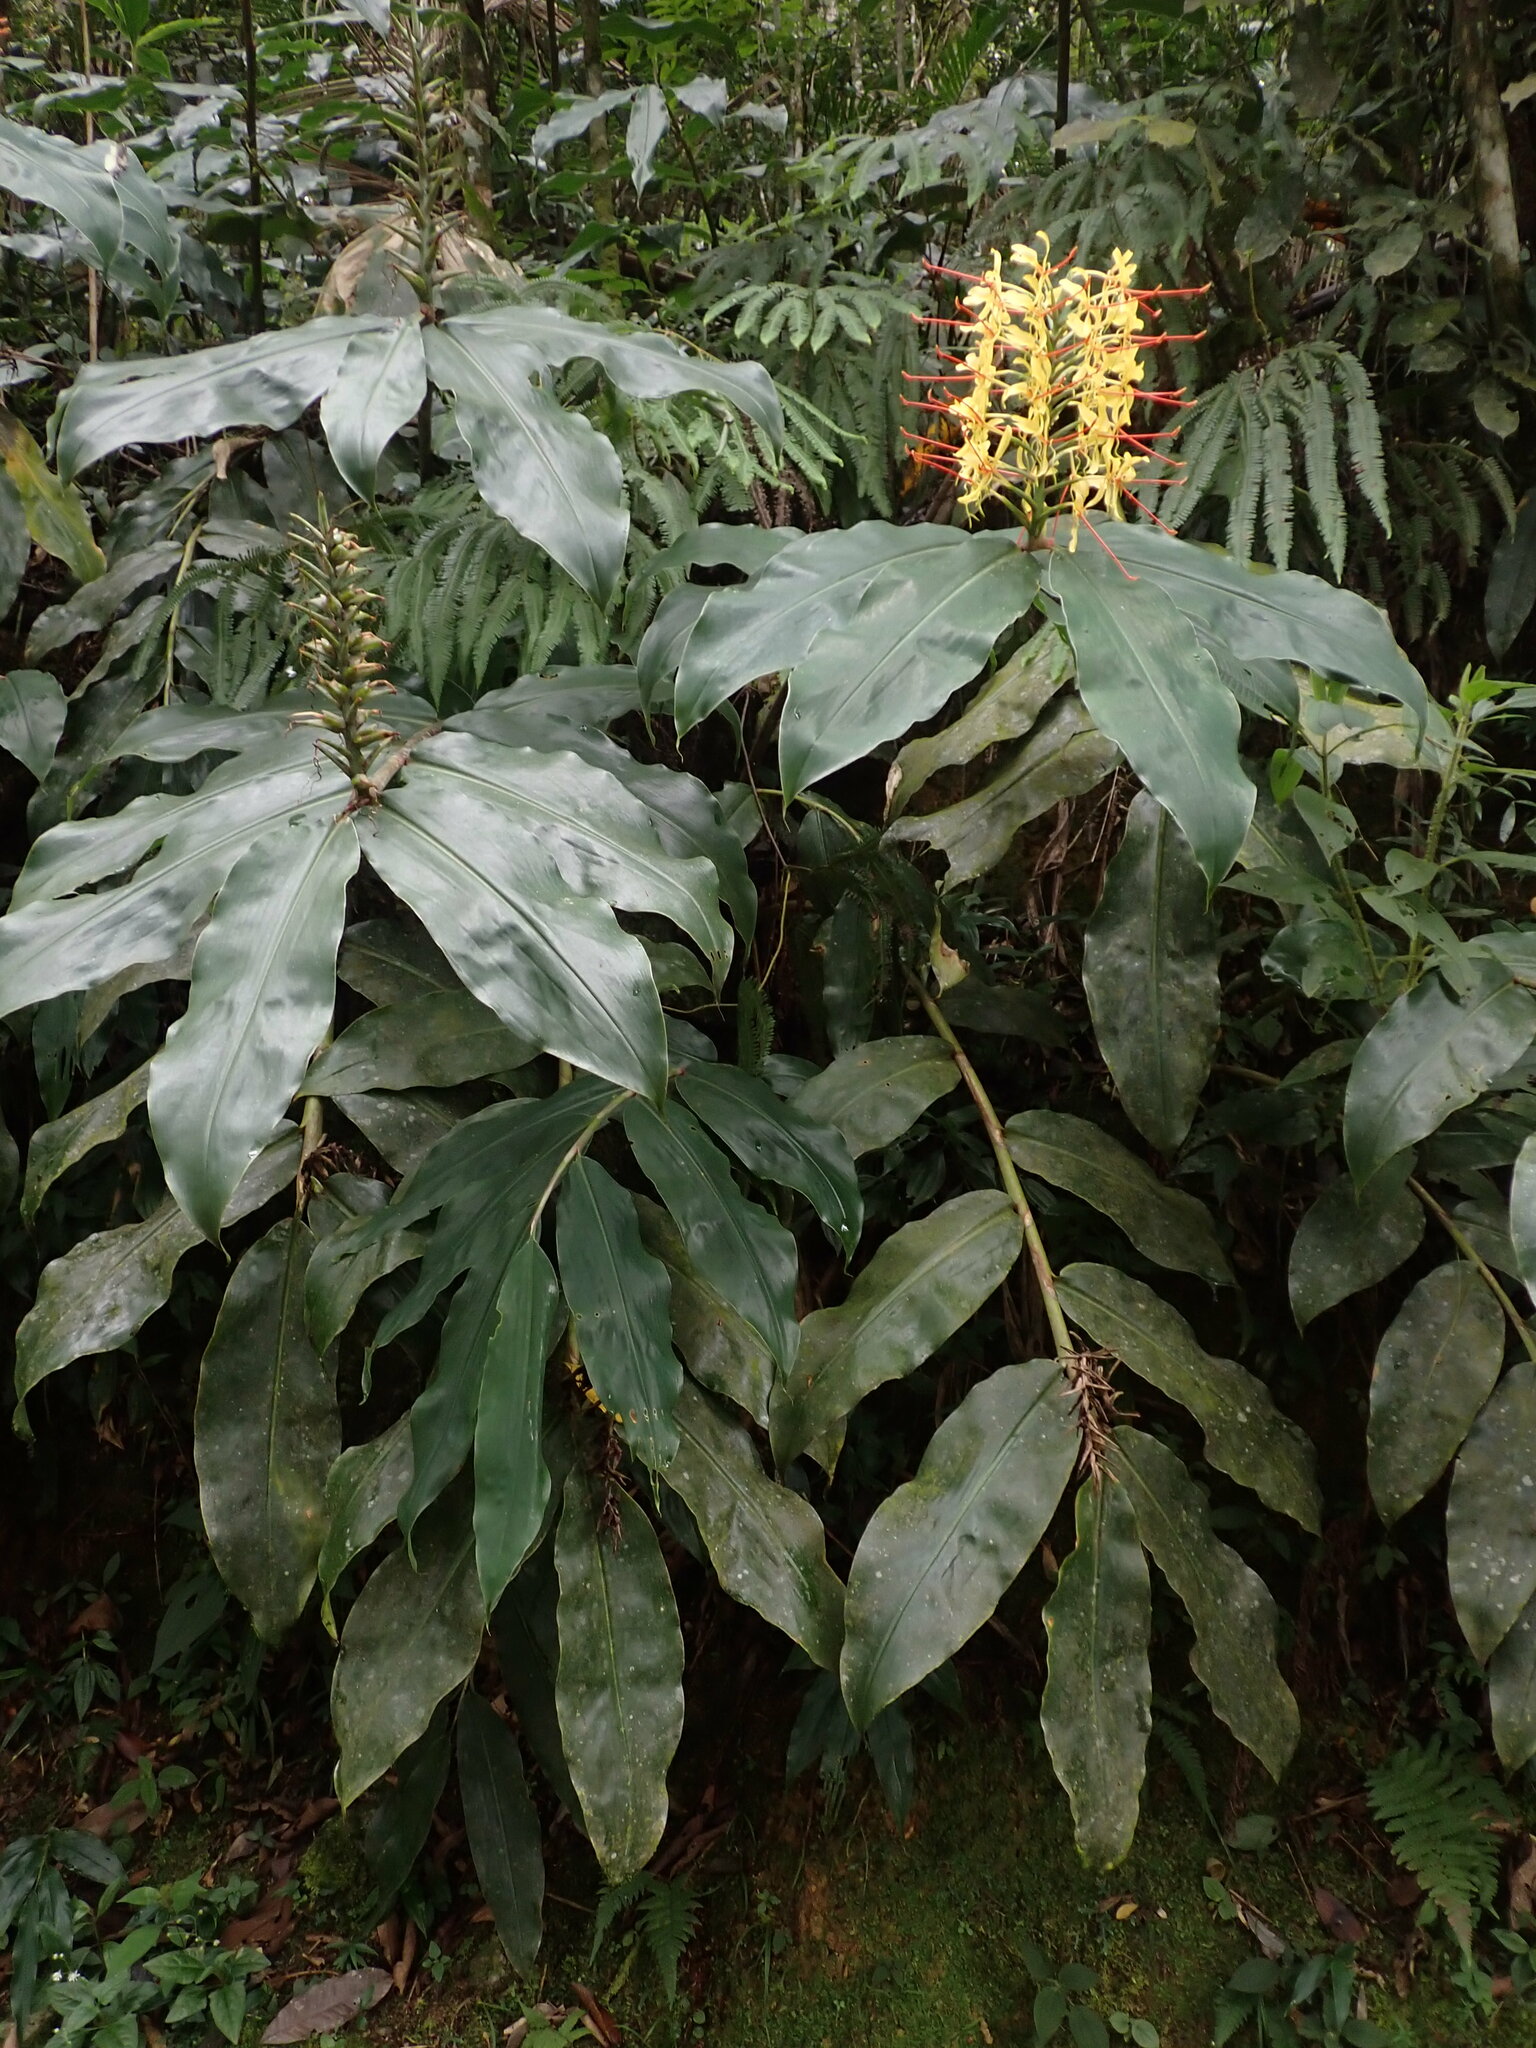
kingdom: Plantae
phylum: Tracheophyta
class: Liliopsida
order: Zingiberales
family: Zingiberaceae
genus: Hedychium
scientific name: Hedychium gardnerianum
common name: Himalayan ginger
